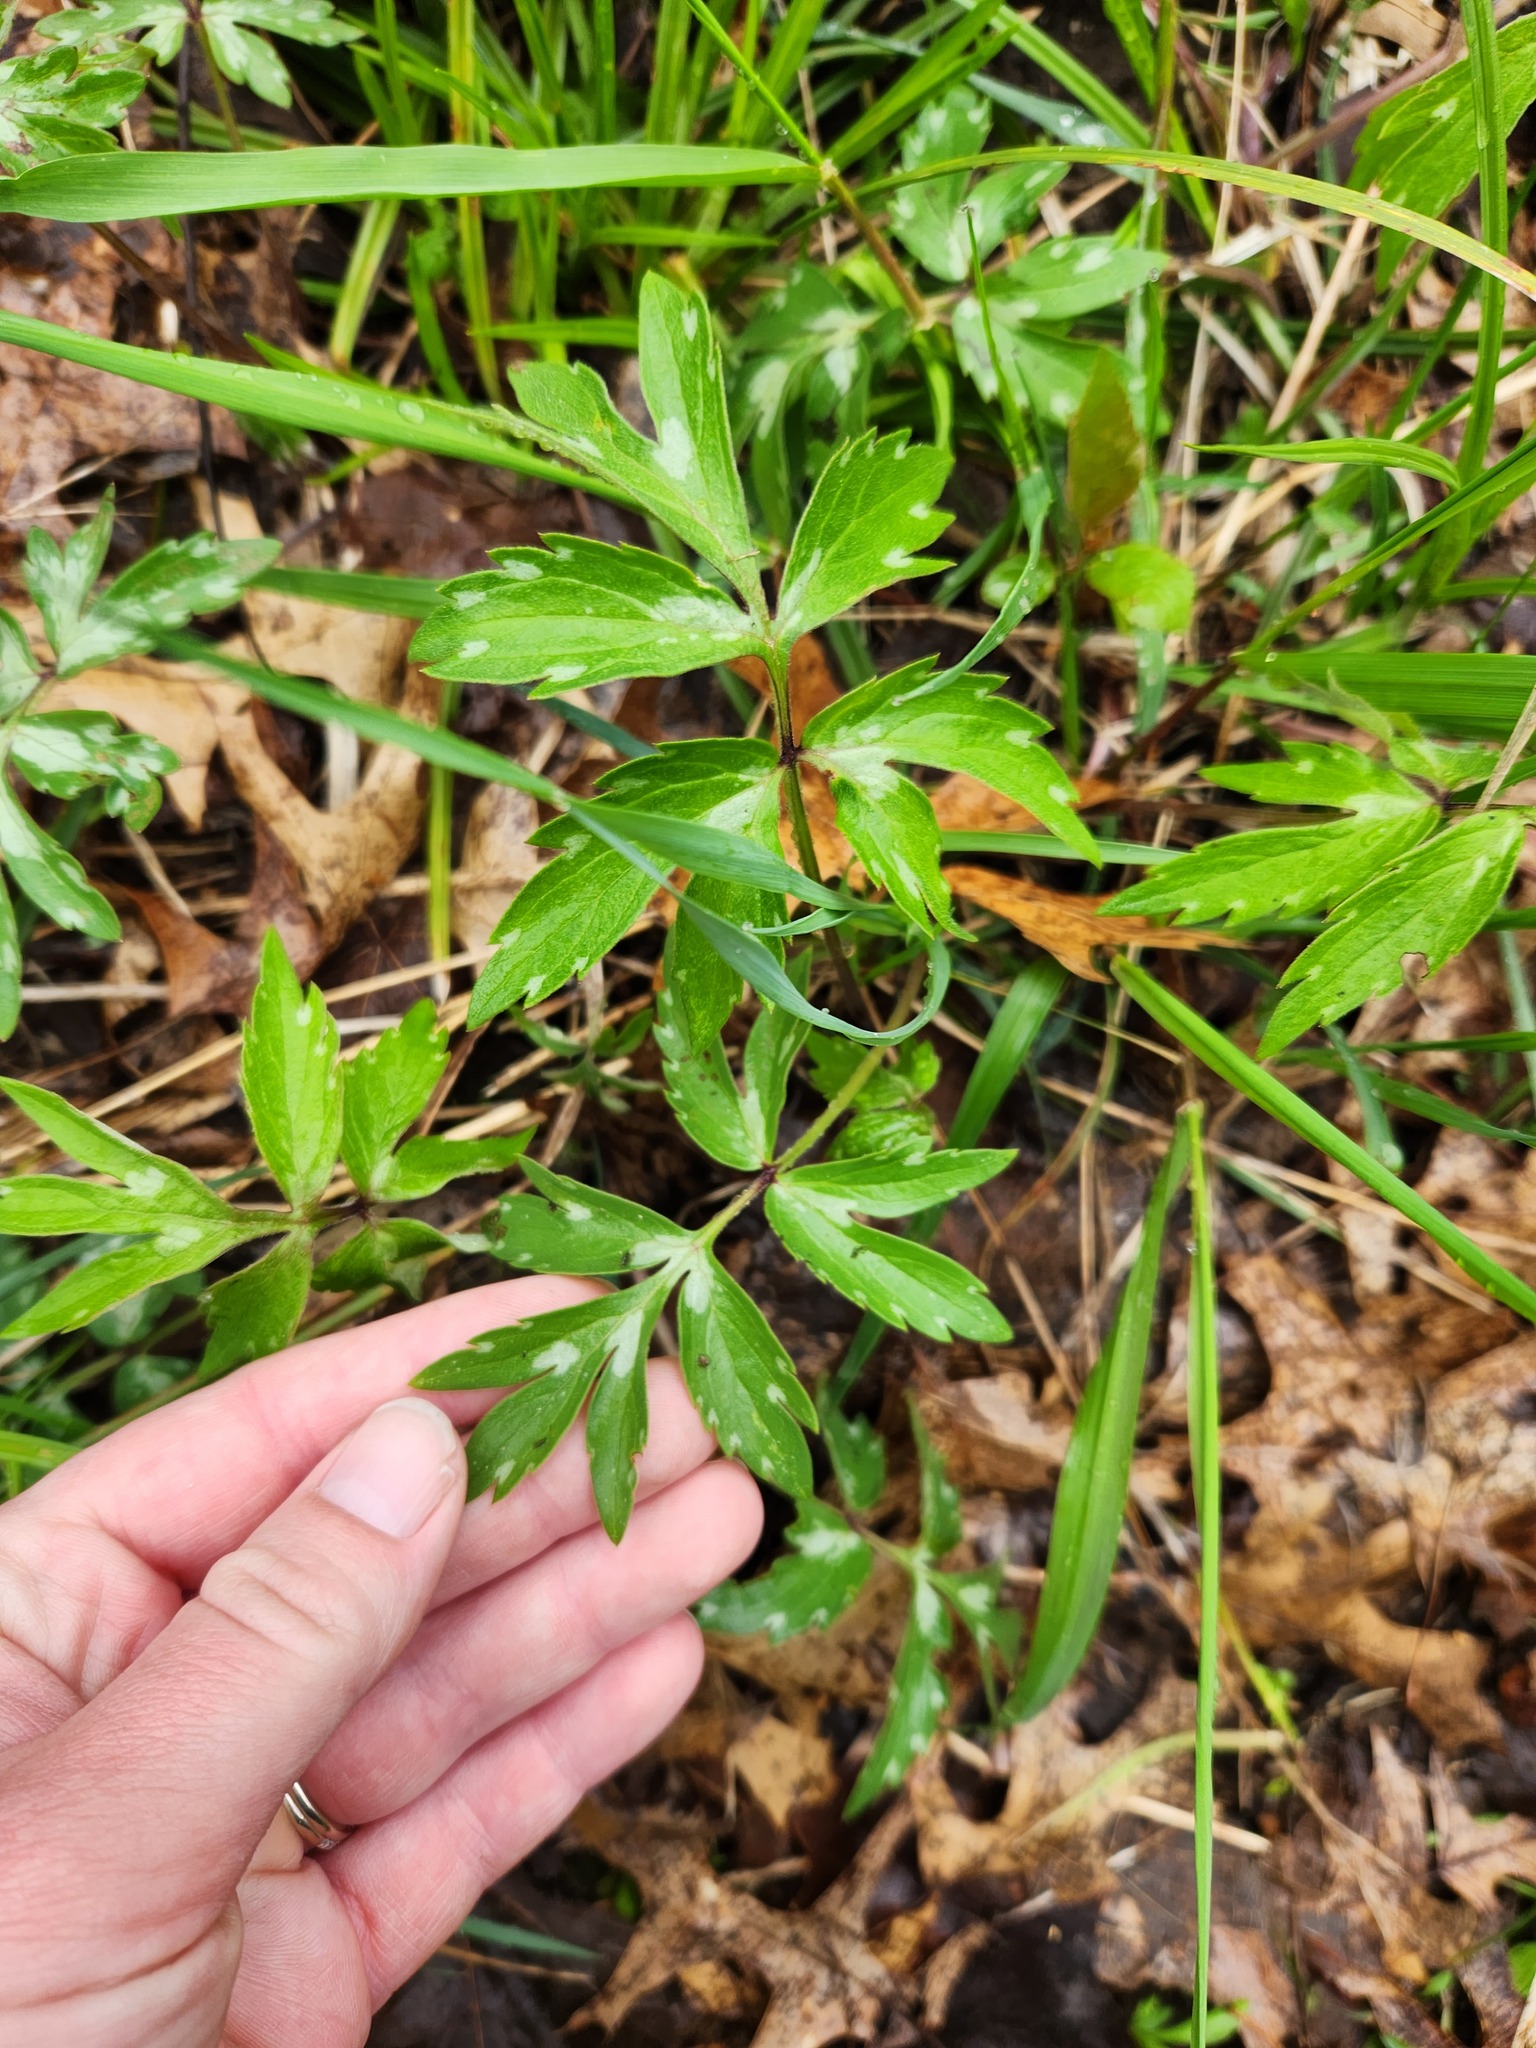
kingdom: Plantae
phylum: Tracheophyta
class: Magnoliopsida
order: Boraginales
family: Hydrophyllaceae
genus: Hydrophyllum
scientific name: Hydrophyllum virginianum
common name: Virginia waterleaf
